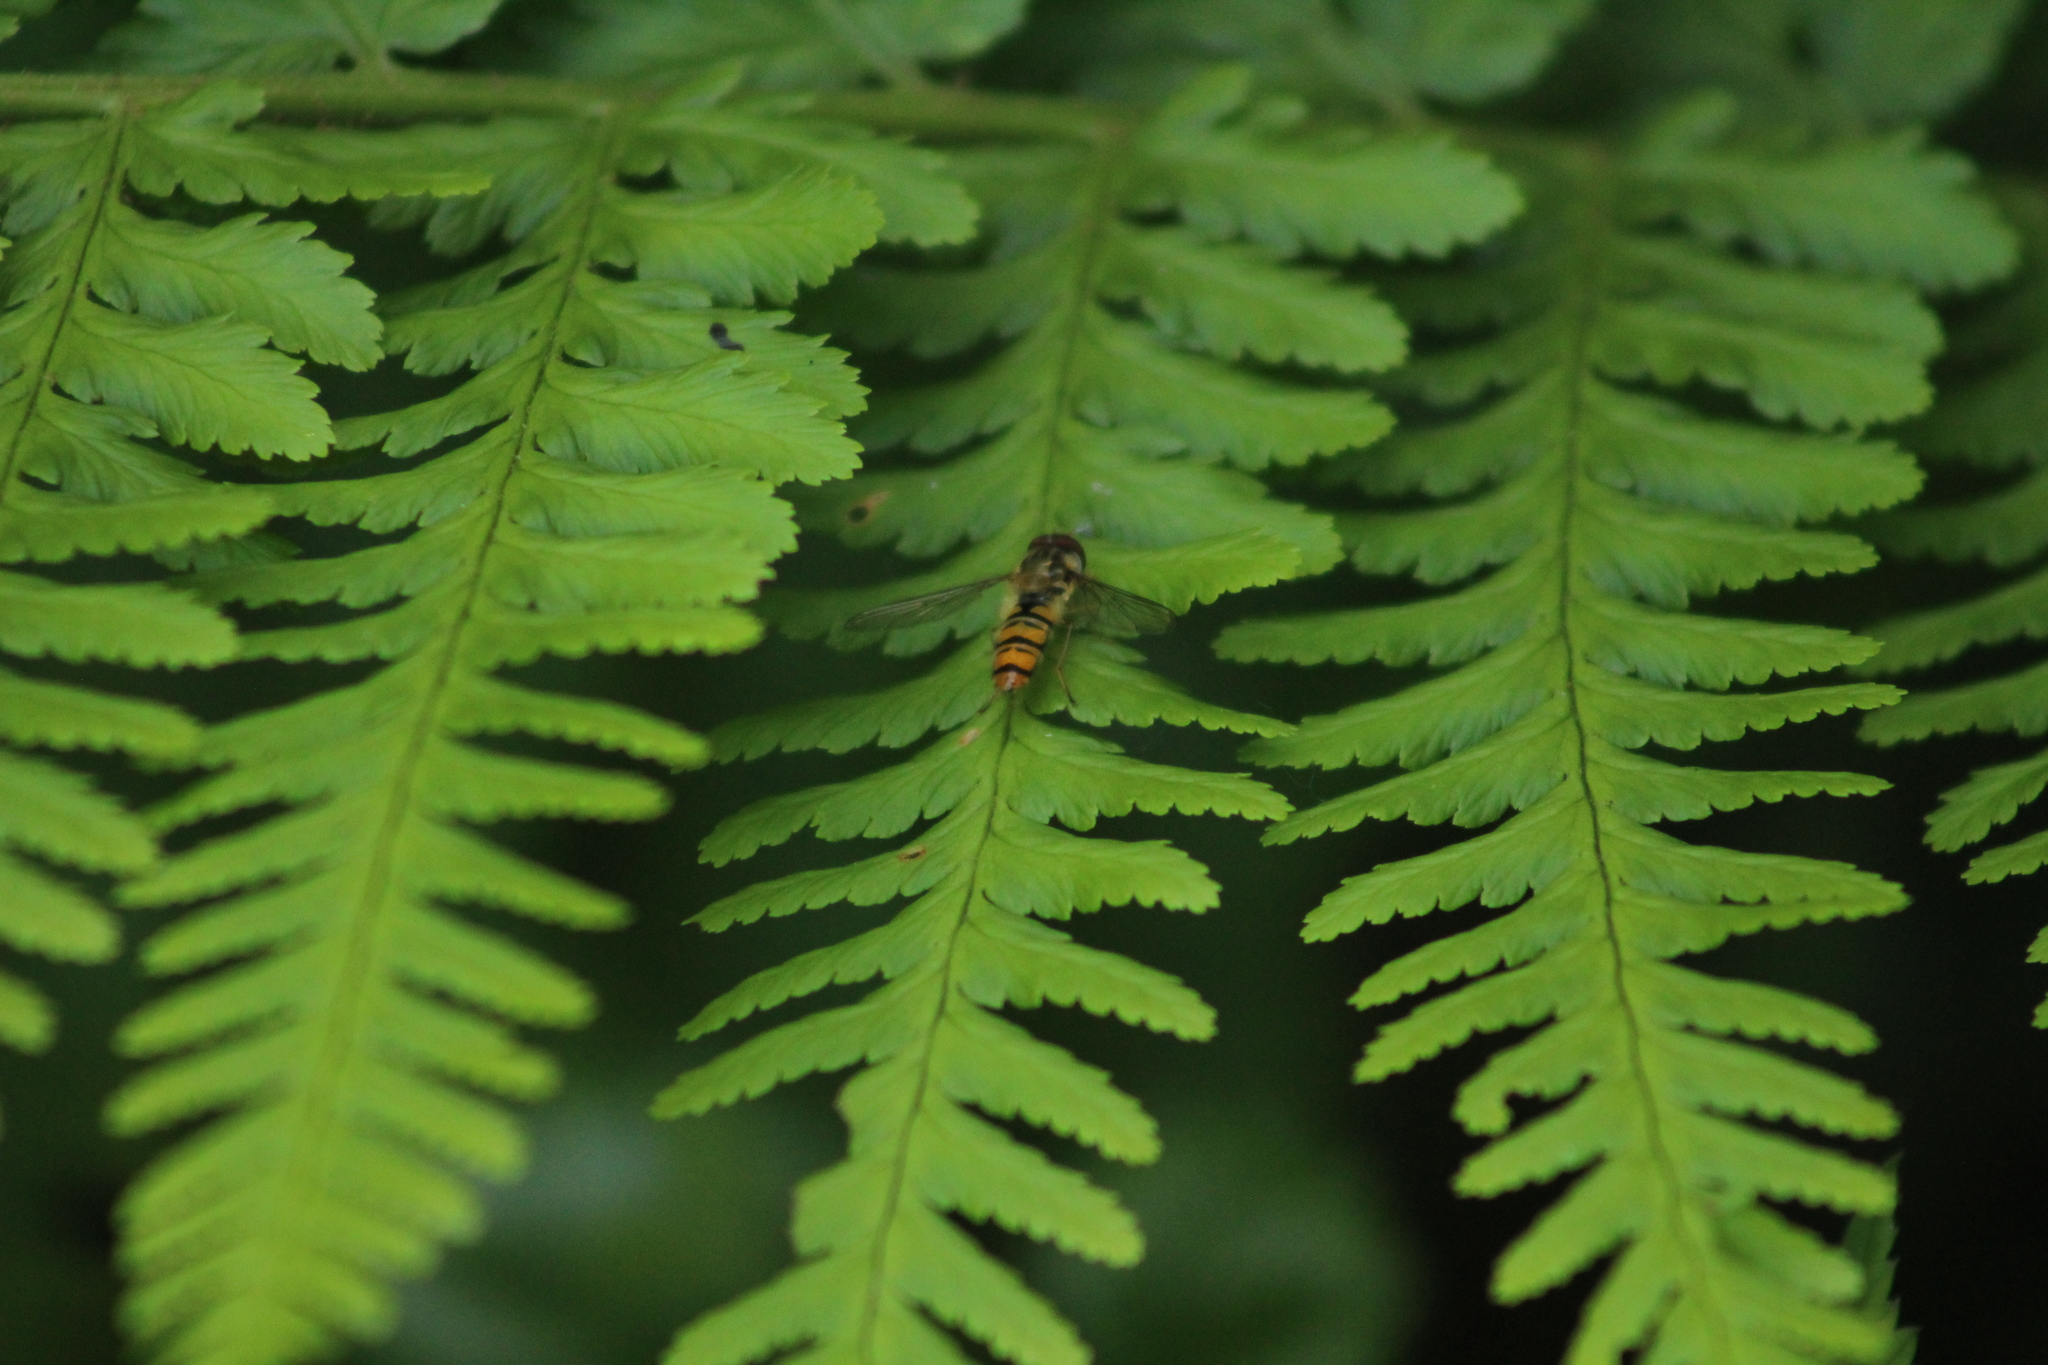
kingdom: Animalia
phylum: Arthropoda
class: Insecta
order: Diptera
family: Syrphidae
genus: Episyrphus
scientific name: Episyrphus balteatus
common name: Marmalade hoverfly
